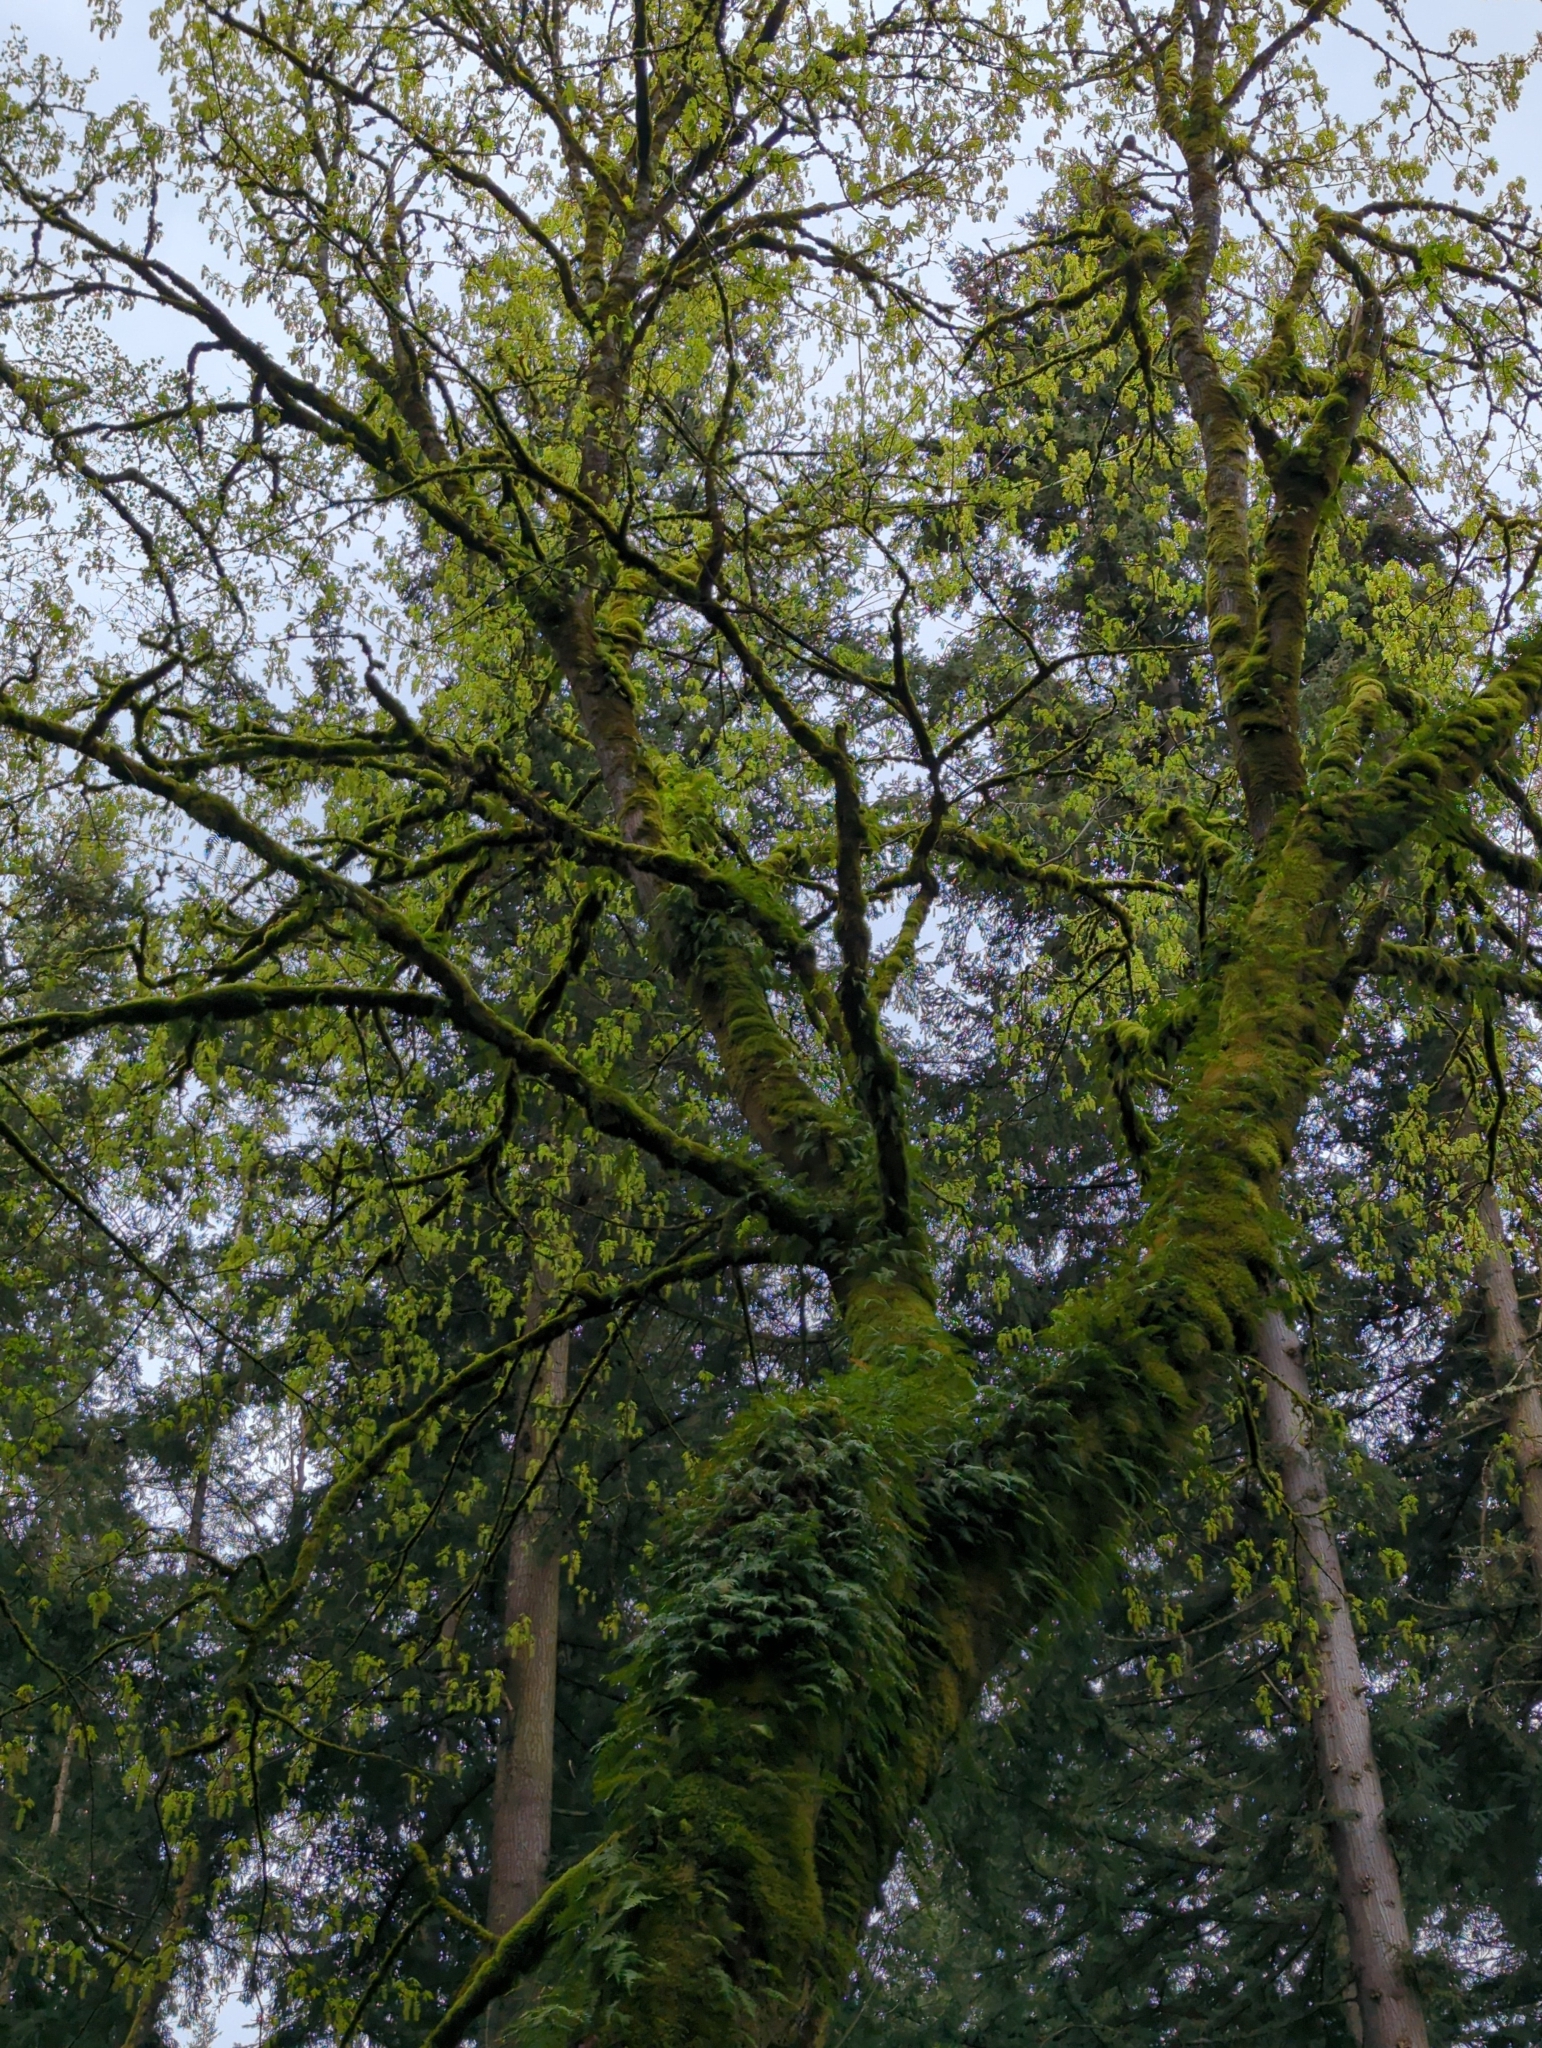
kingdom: Plantae
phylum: Tracheophyta
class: Magnoliopsida
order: Sapindales
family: Sapindaceae
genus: Acer
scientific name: Acer macrophyllum
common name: Oregon maple
